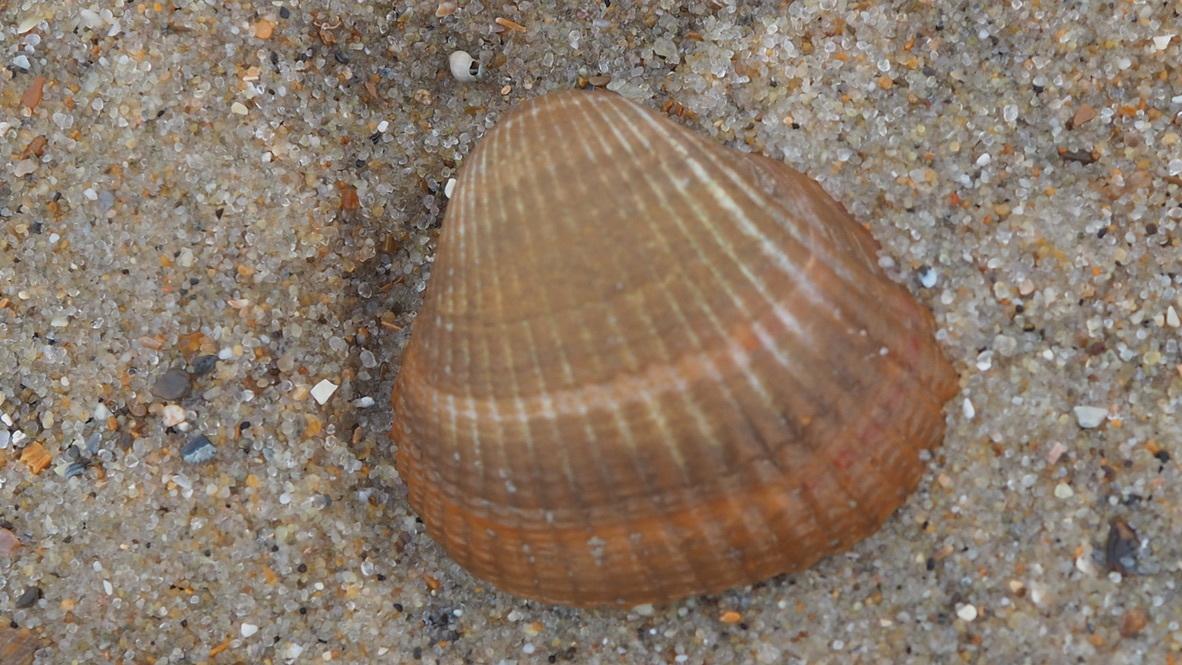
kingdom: Animalia
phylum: Mollusca
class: Bivalvia
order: Cardiida
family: Cardiidae
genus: Cerastoderma
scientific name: Cerastoderma edule
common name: Common cockle
